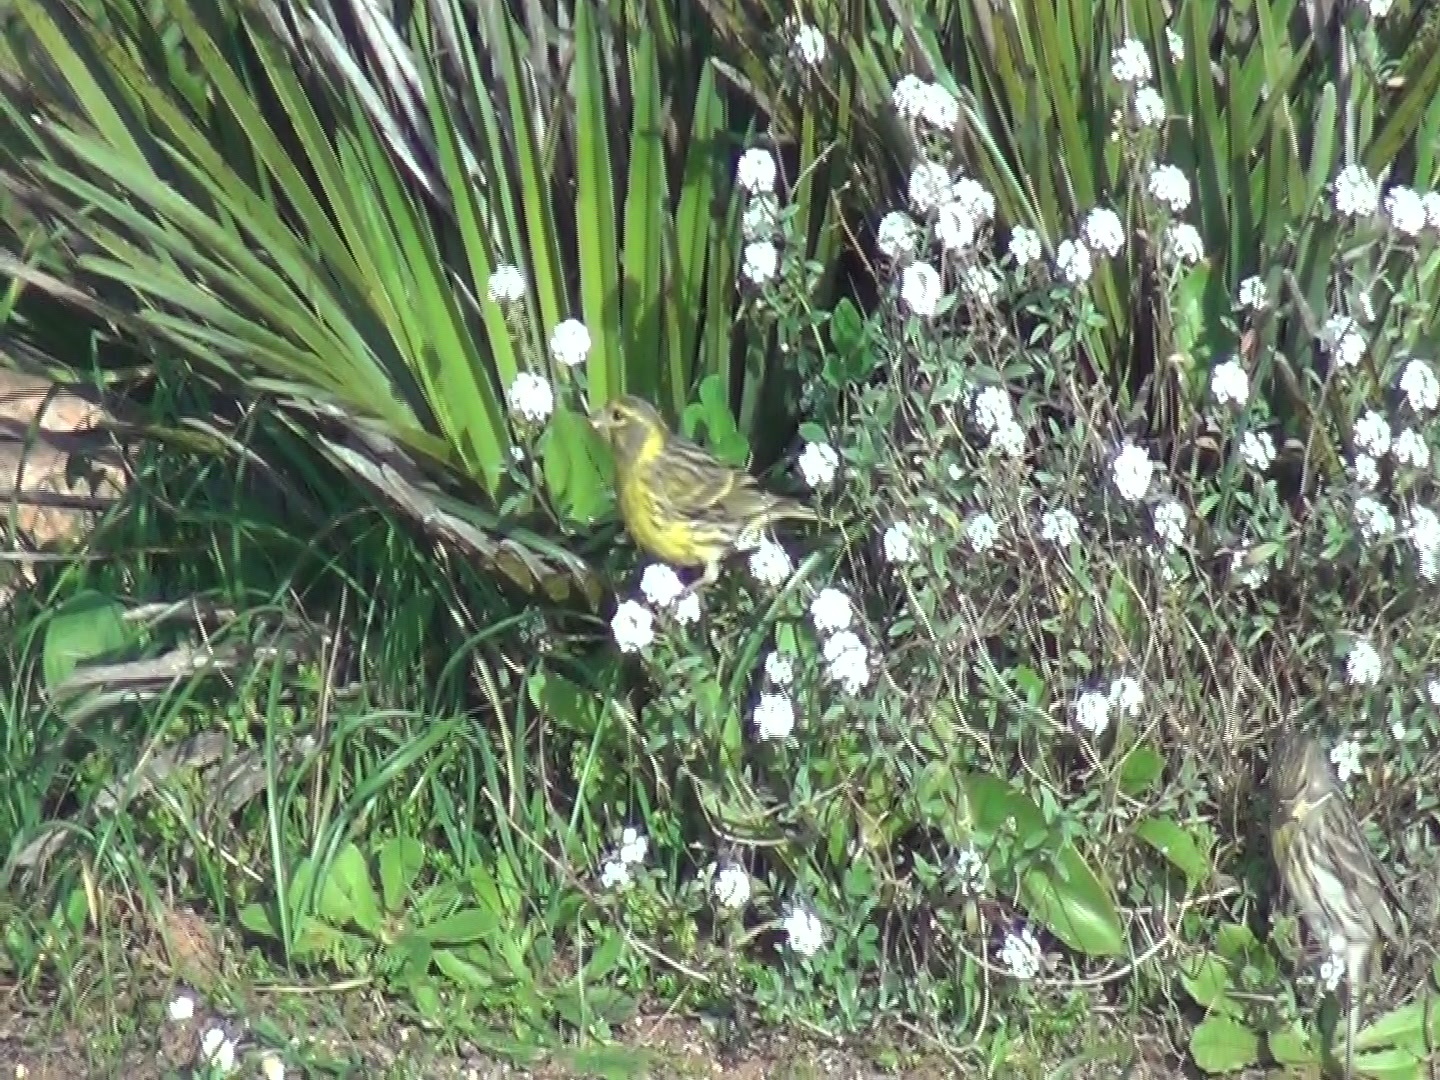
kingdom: Animalia
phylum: Chordata
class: Aves
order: Passeriformes
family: Fringillidae
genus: Serinus
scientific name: Serinus serinus
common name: European serin
